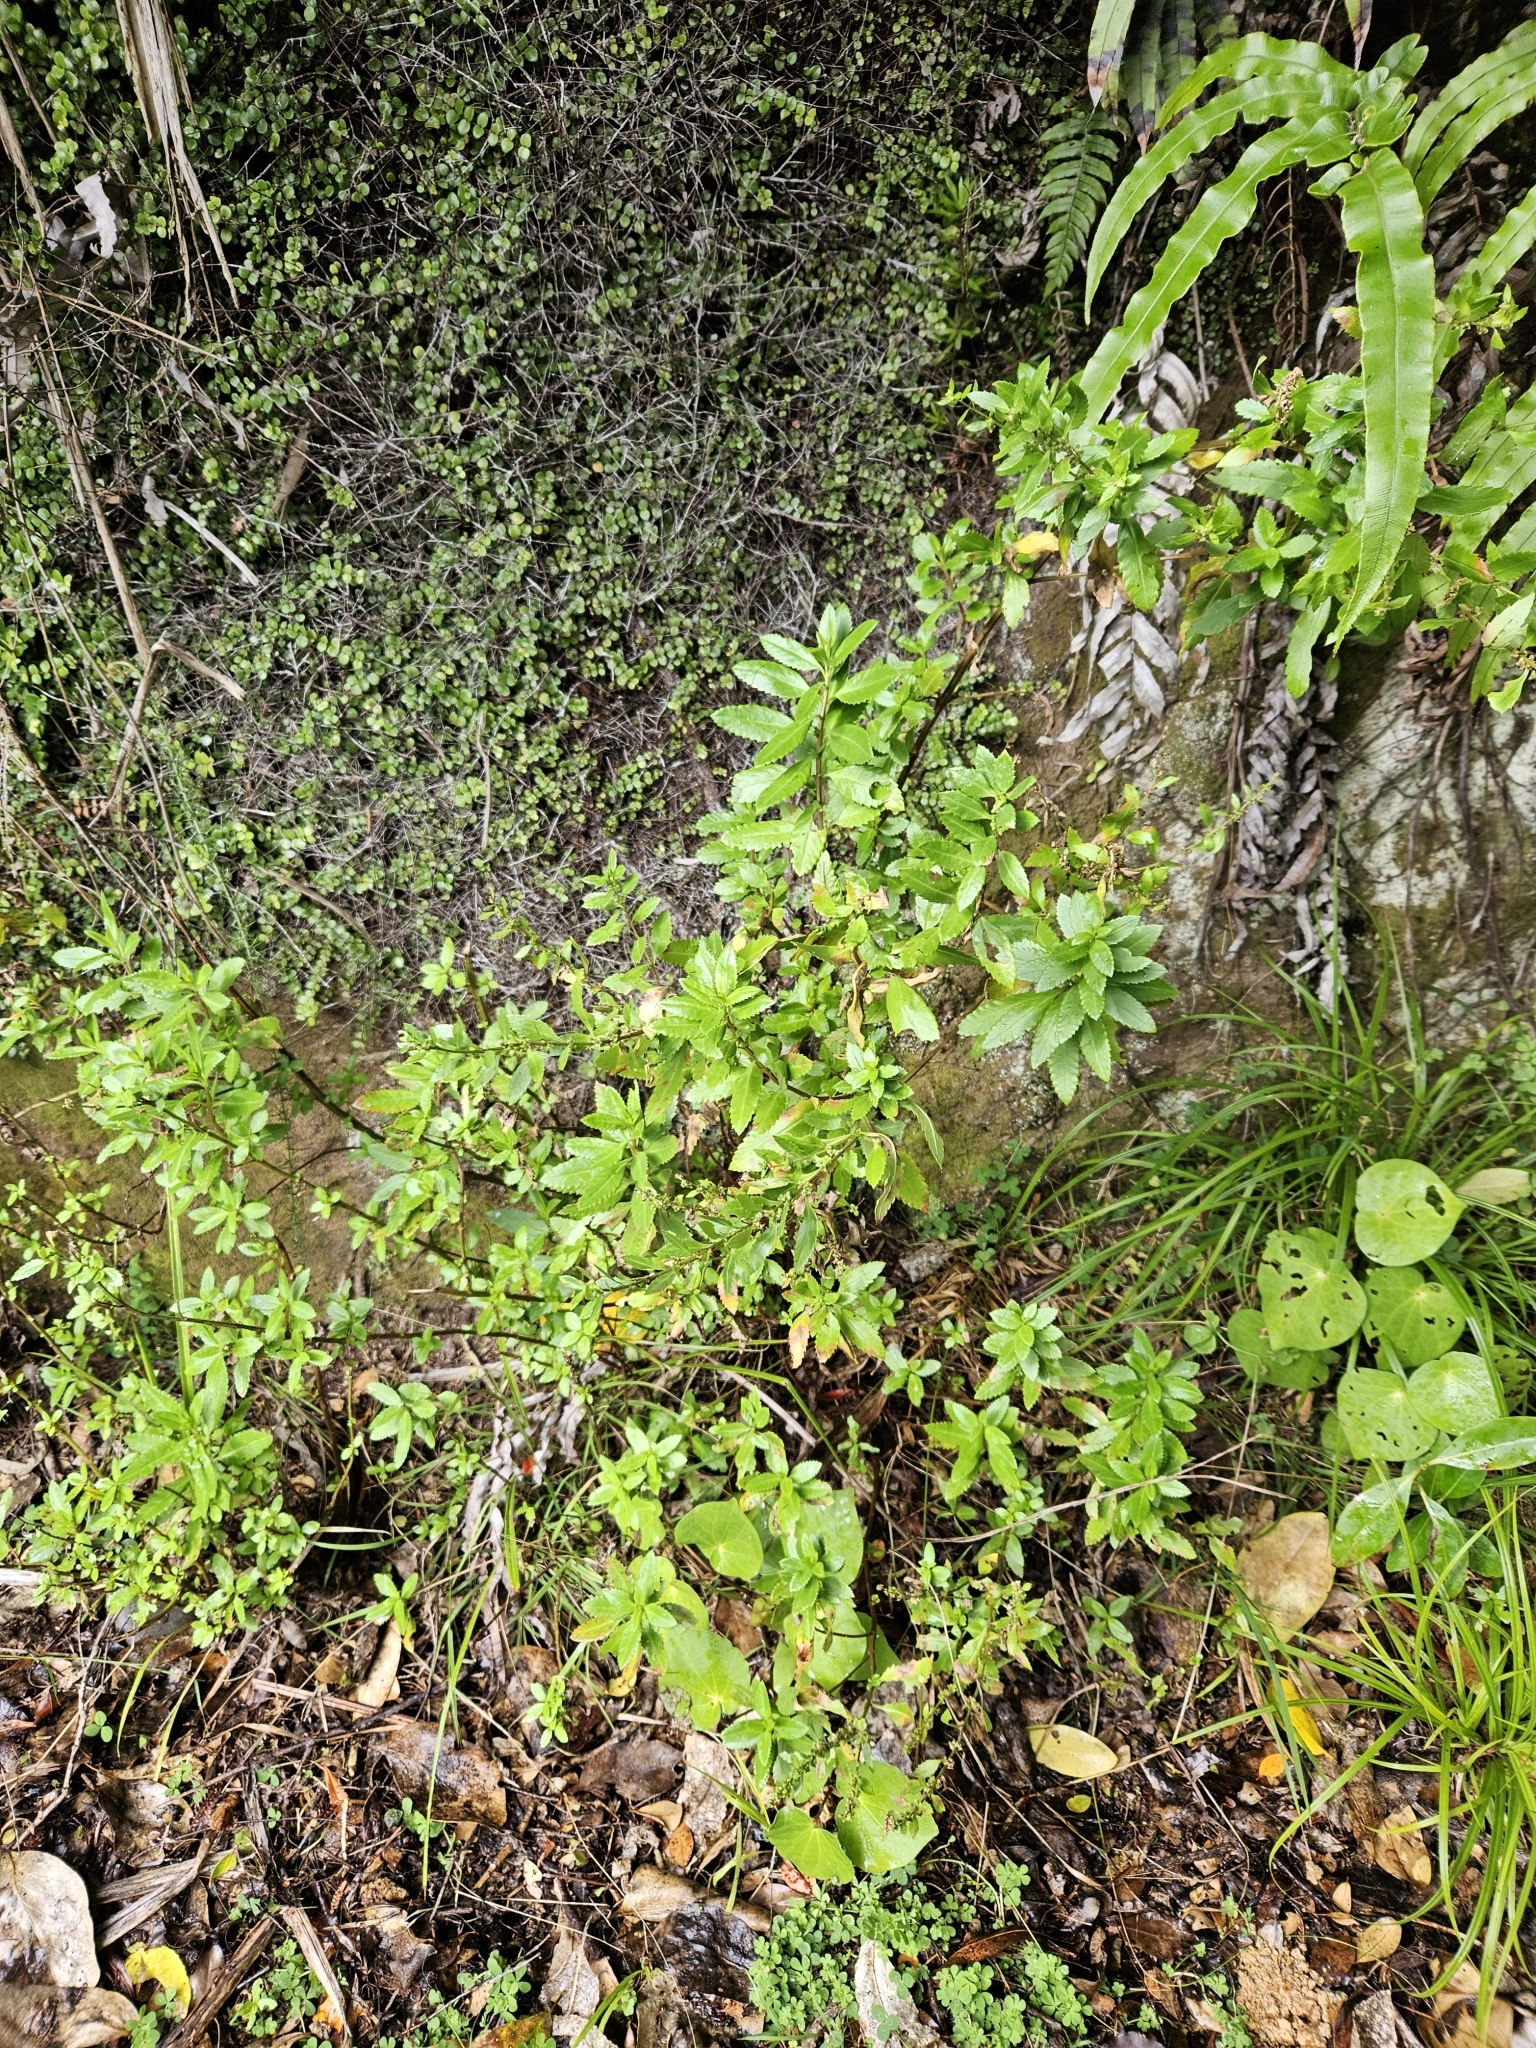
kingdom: Plantae
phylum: Tracheophyta
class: Magnoliopsida
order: Saxifragales
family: Haloragaceae
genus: Haloragis
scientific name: Haloragis erecta
